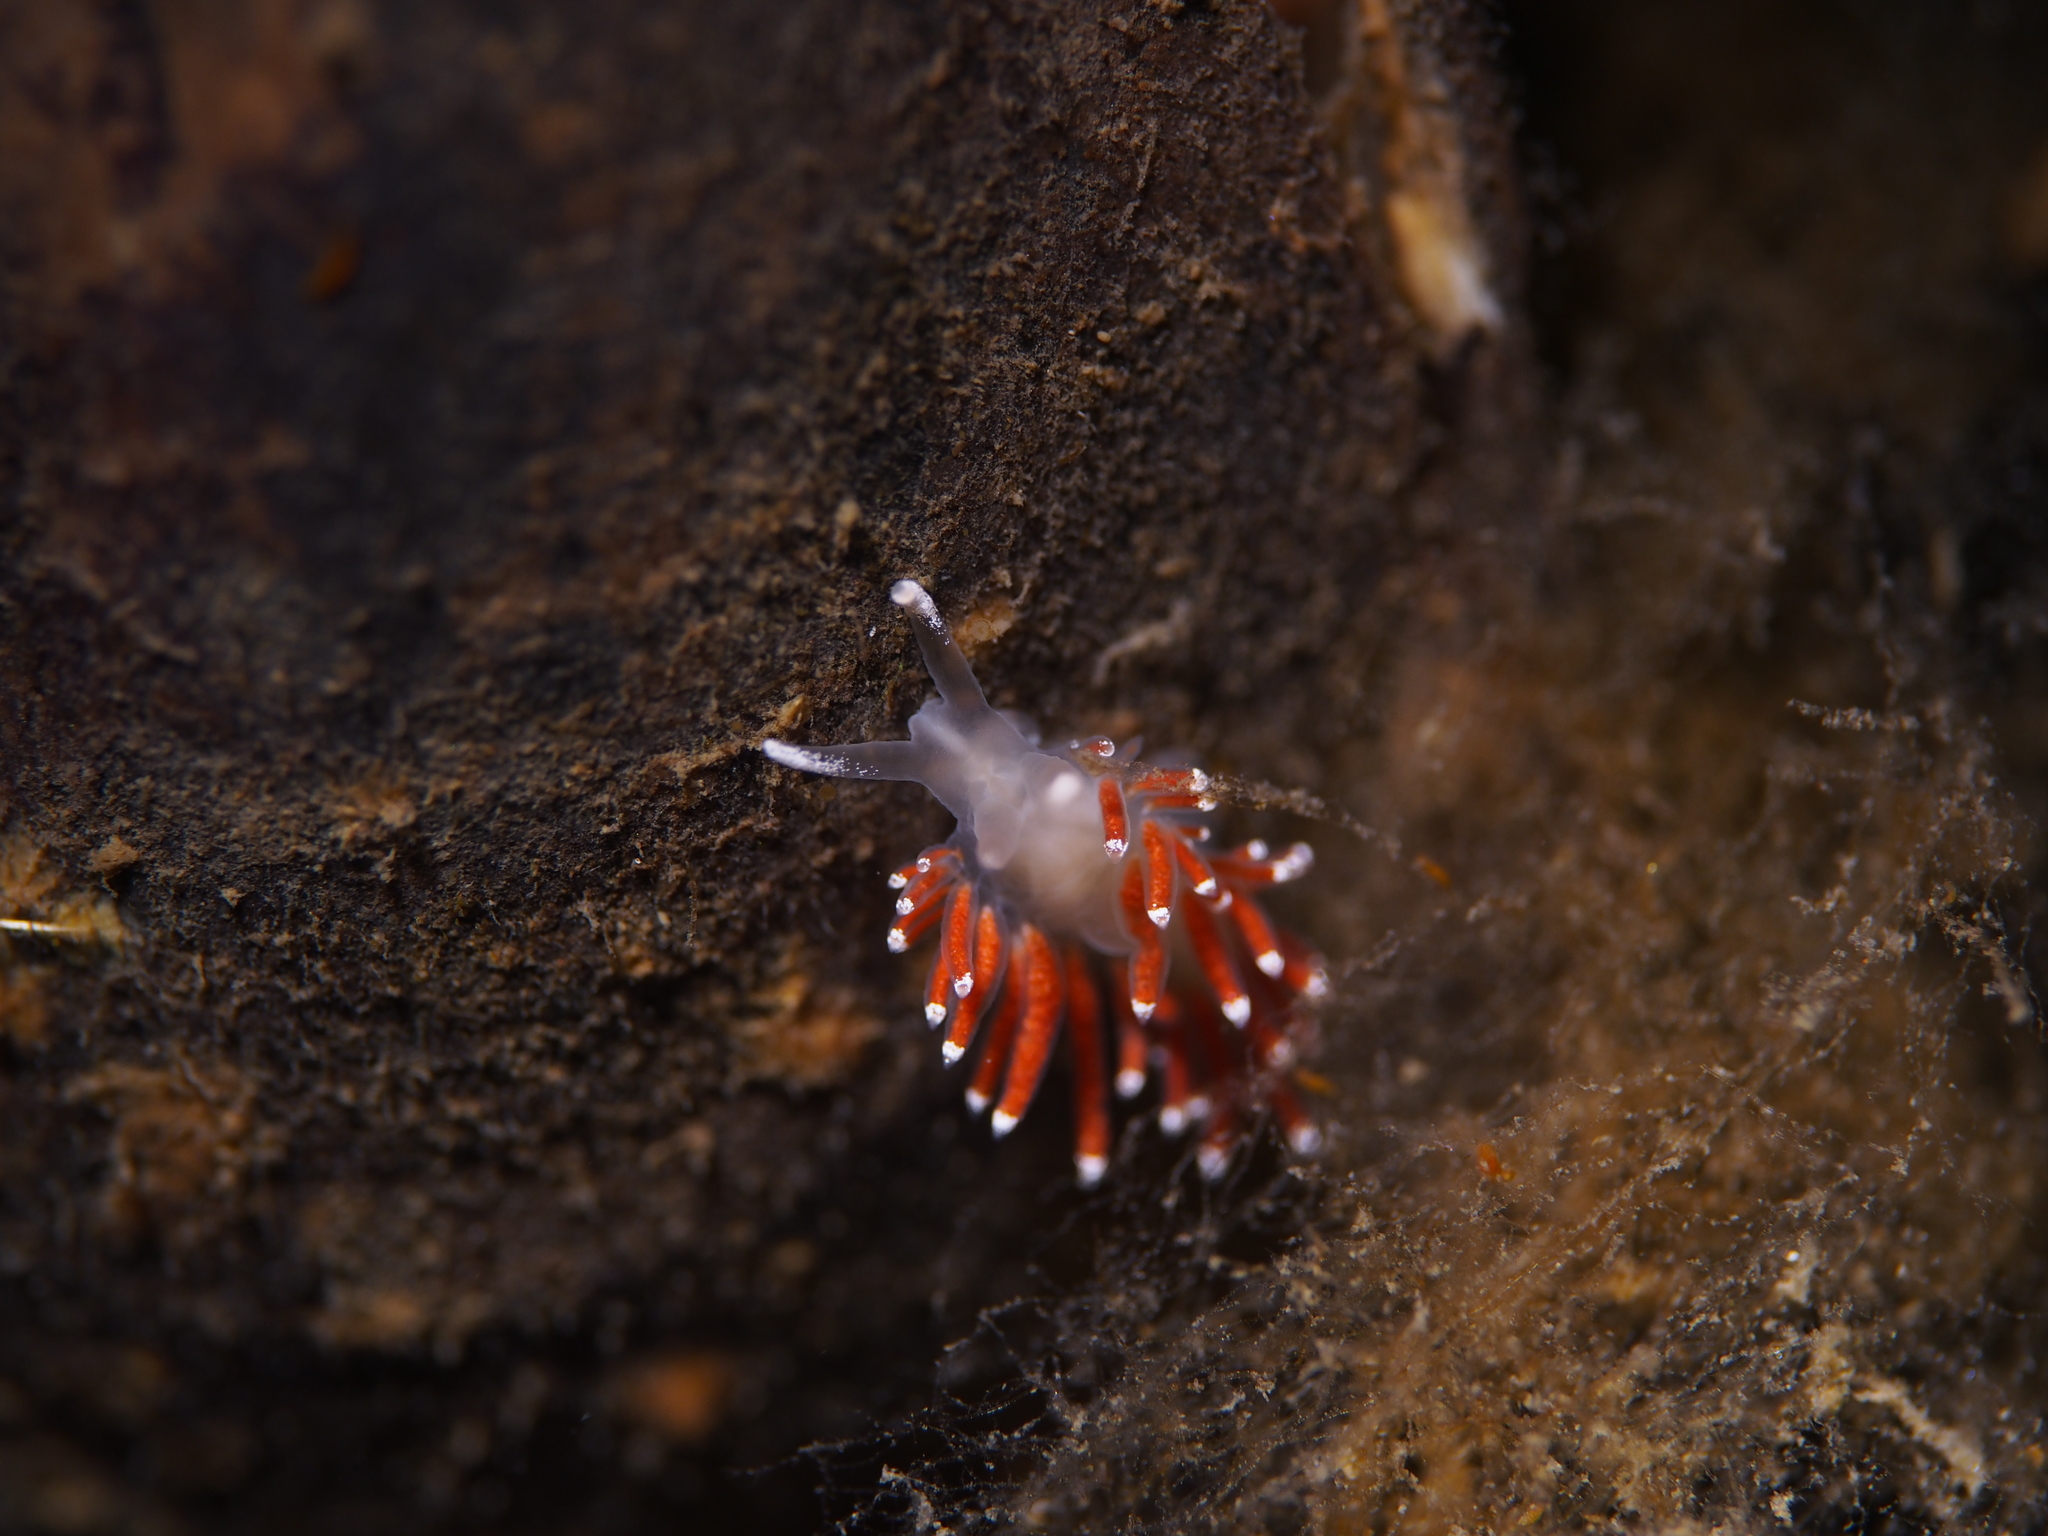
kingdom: Animalia
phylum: Mollusca
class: Gastropoda
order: Nudibranchia
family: Coryphellidae
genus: Coryphella
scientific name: Coryphella gracilis
